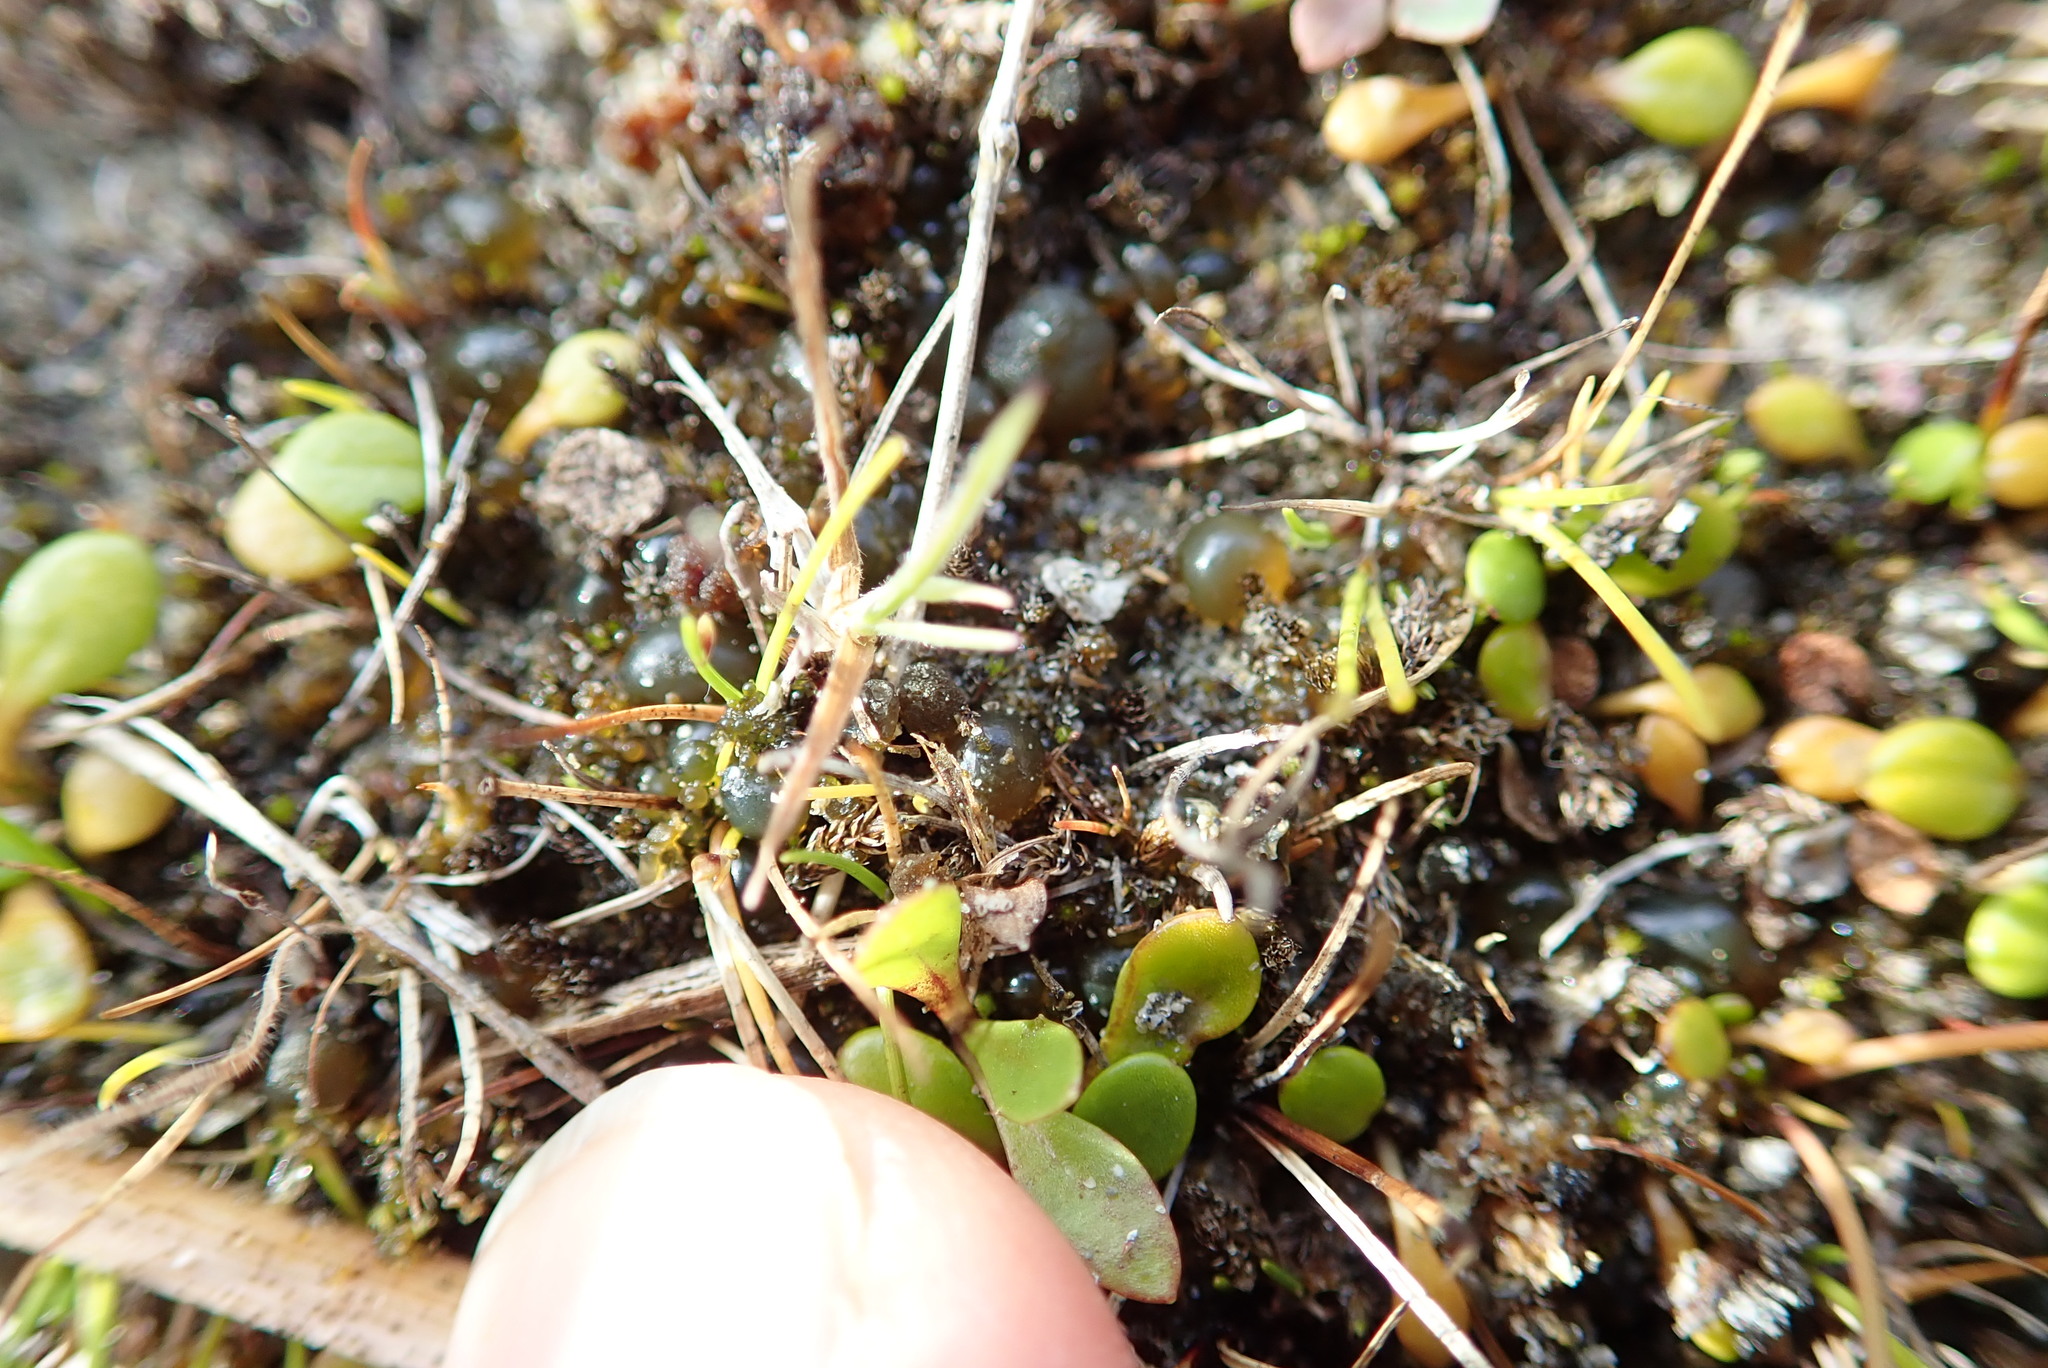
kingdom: Bacteria
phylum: Cyanobacteria
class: Cyanobacteriia
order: Cyanobacteriales
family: Nostocaceae
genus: Nostoc
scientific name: Nostoc commune
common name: Star jelly
